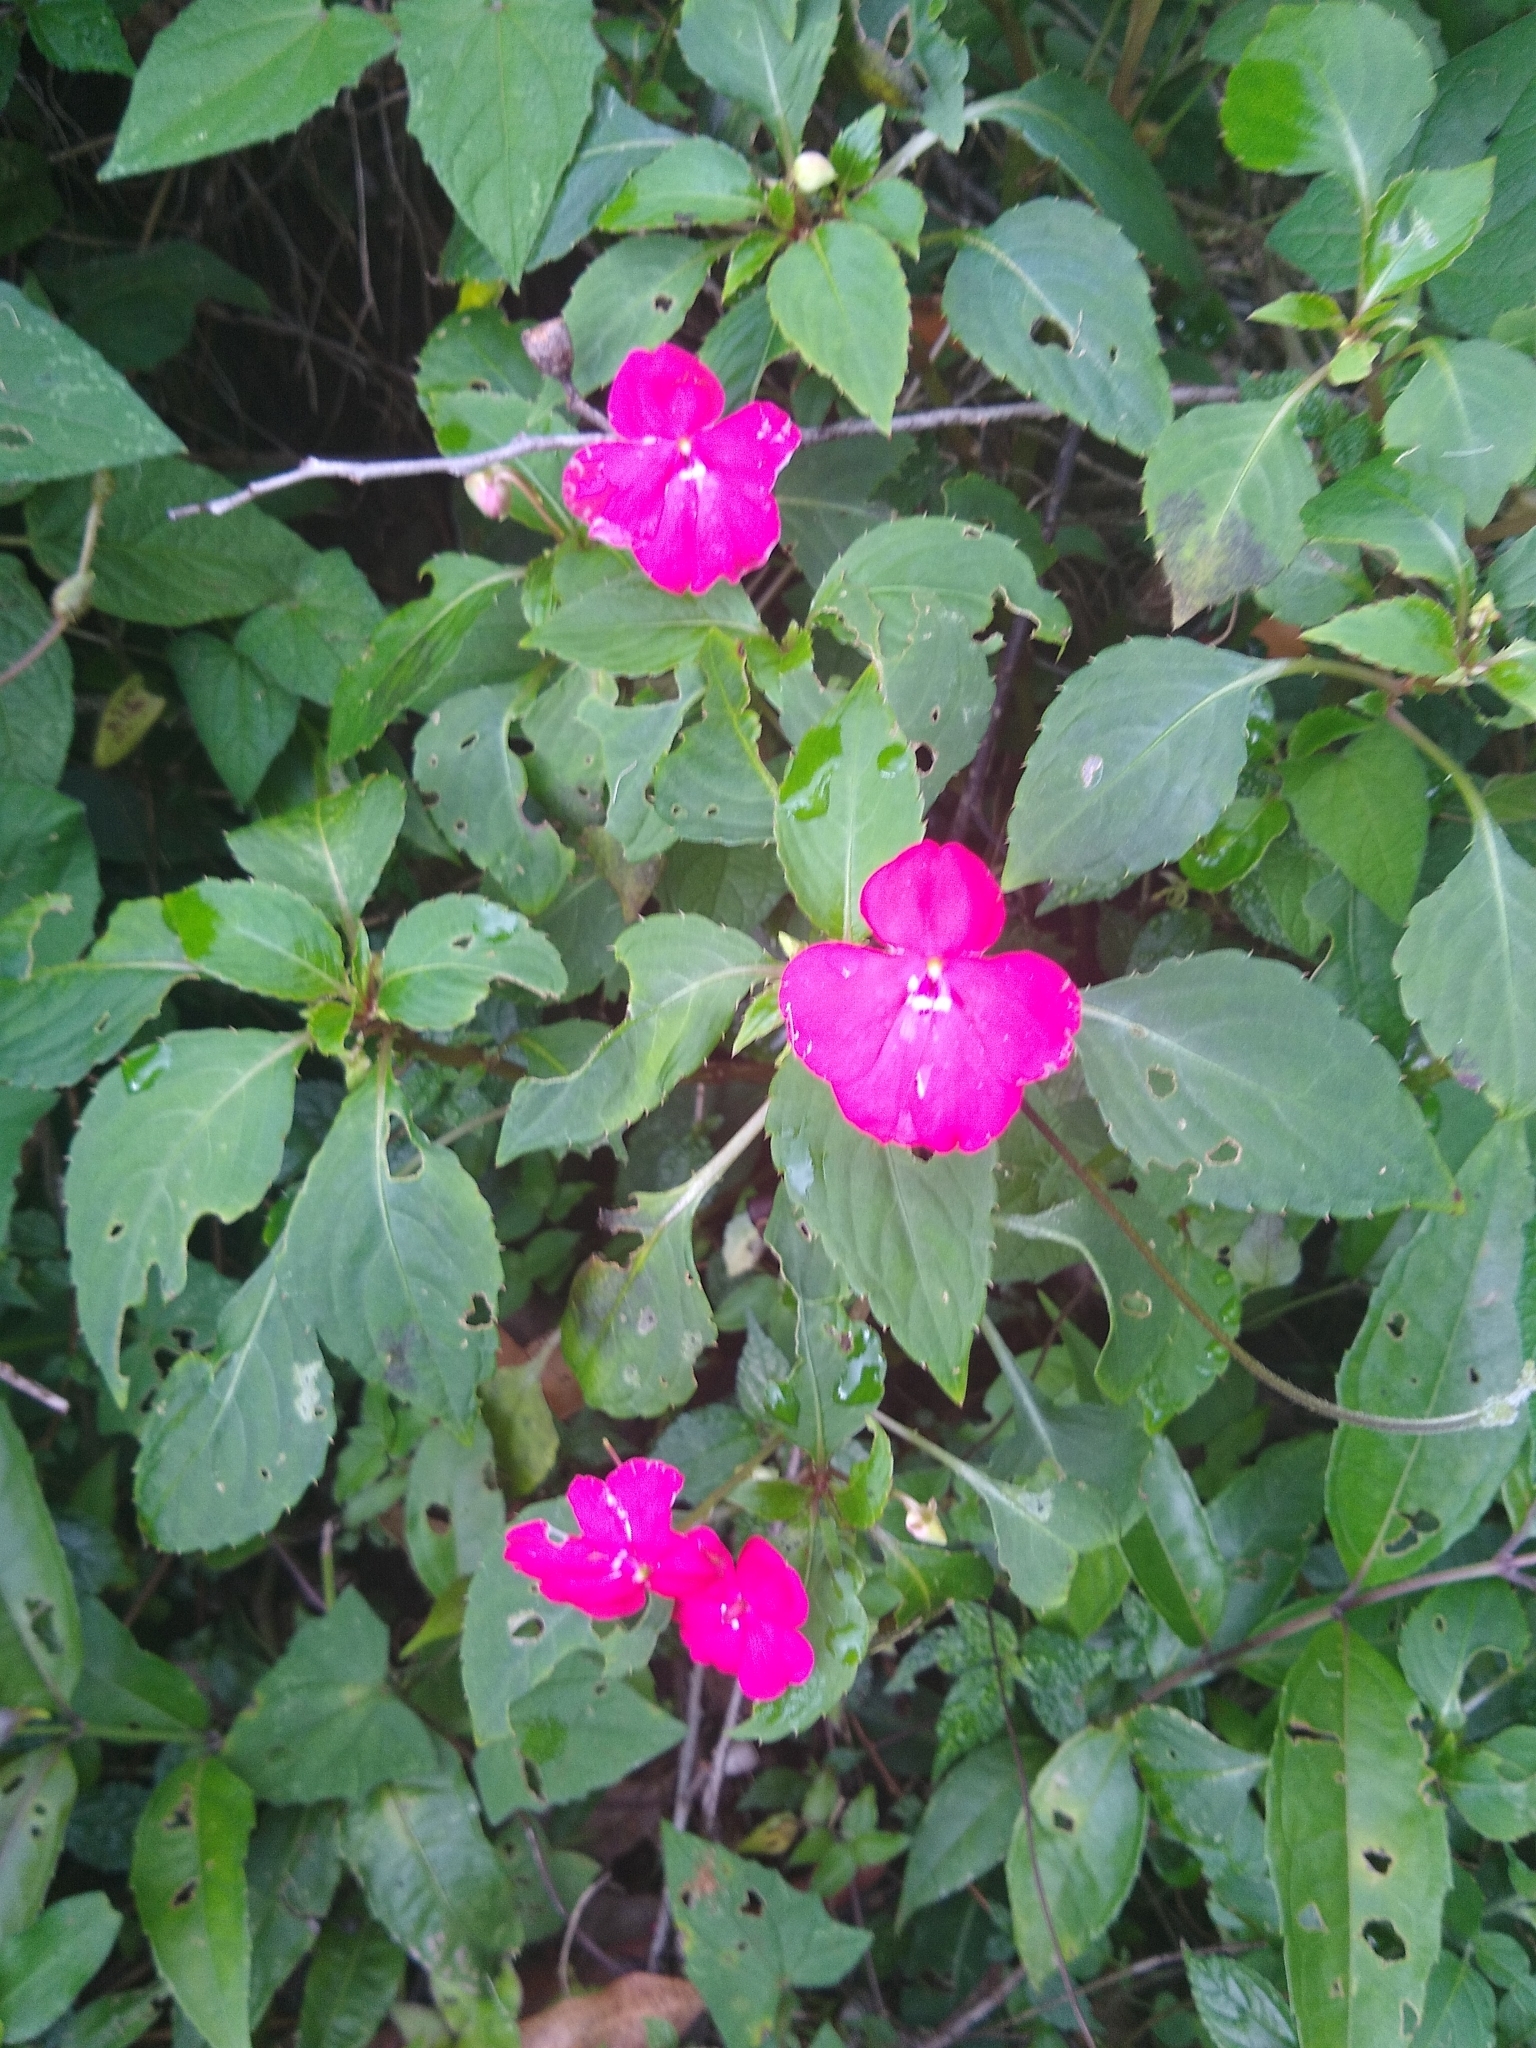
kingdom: Plantae
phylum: Tracheophyta
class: Magnoliopsida
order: Ericales
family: Balsaminaceae
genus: Impatiens
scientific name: Impatiens walleriana
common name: Buzzy lizzy
